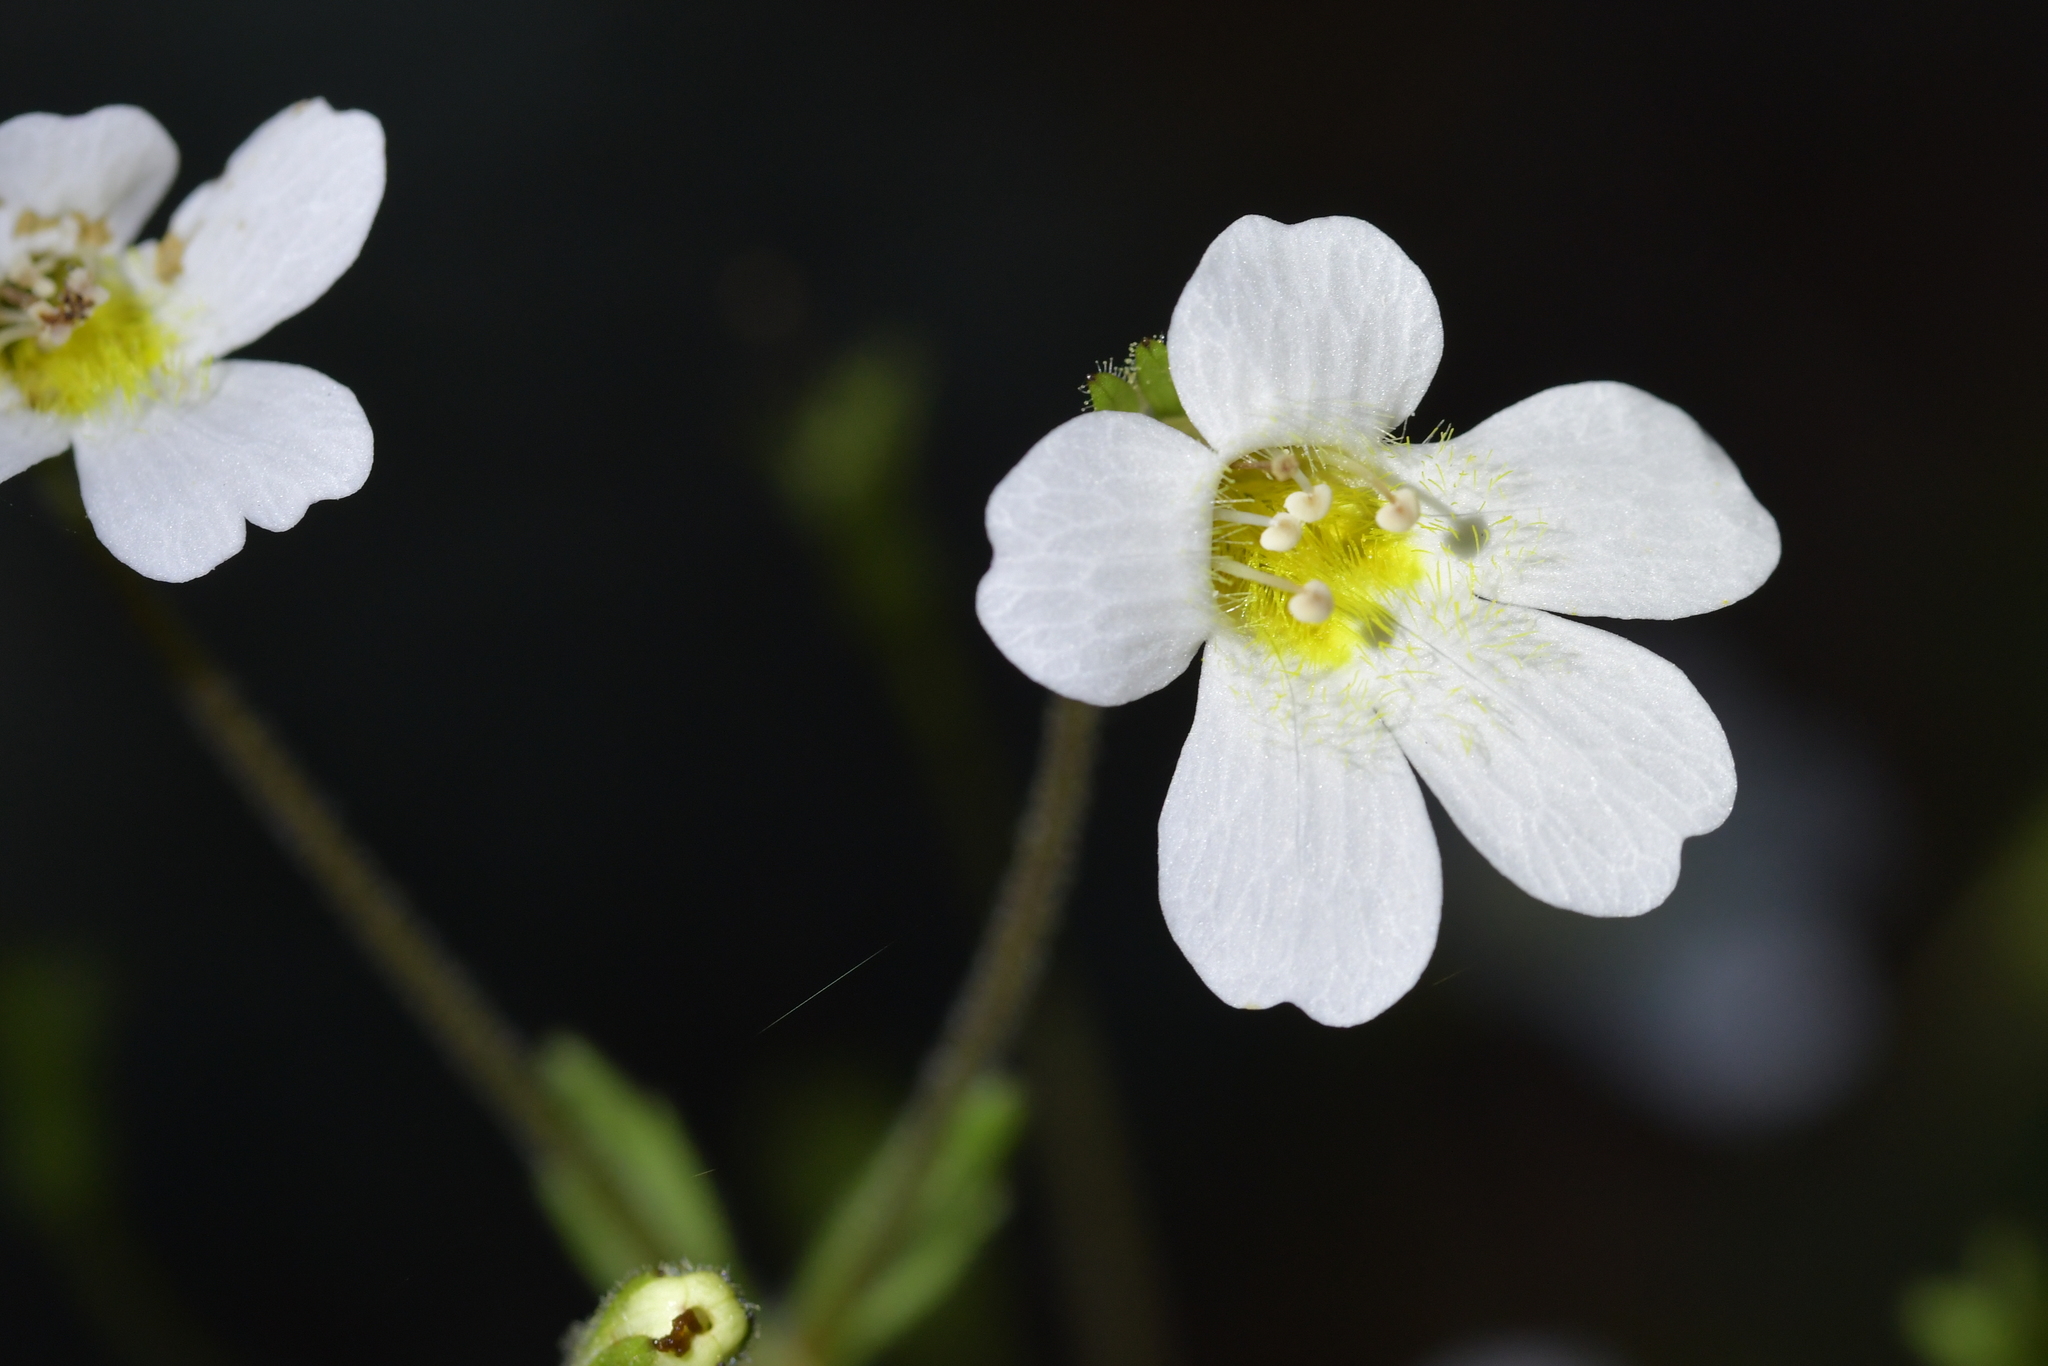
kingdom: Plantae
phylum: Tracheophyta
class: Magnoliopsida
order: Lamiales
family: Plantaginaceae
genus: Ourisia
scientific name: Ourisia macrophylla
